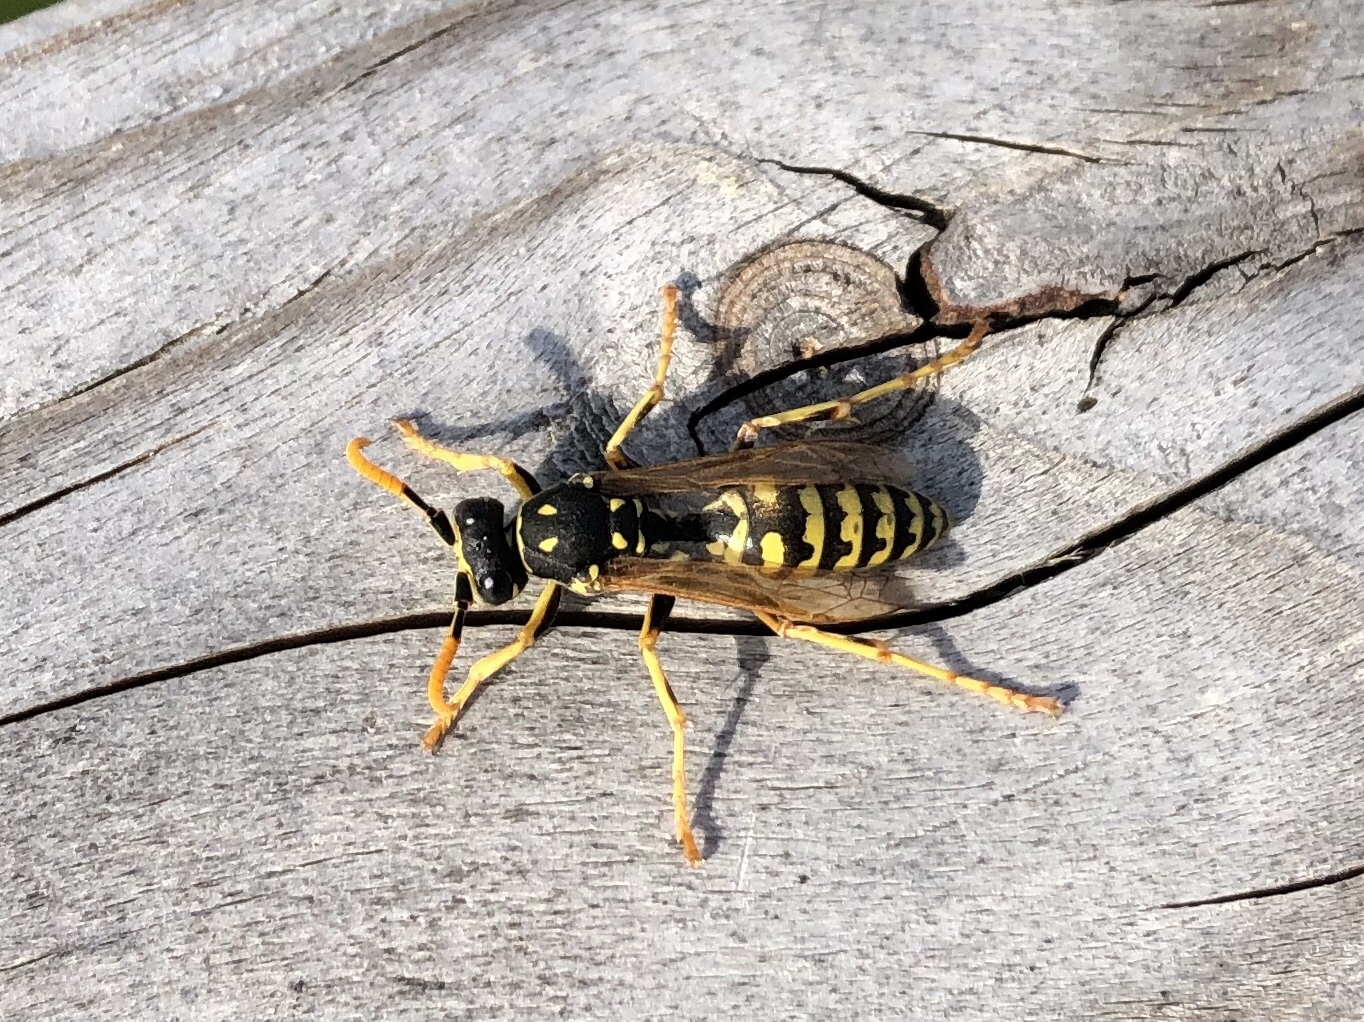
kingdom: Animalia
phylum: Arthropoda
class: Insecta
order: Hymenoptera
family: Eumenidae
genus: Polistes
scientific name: Polistes dominula
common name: Paper wasp
